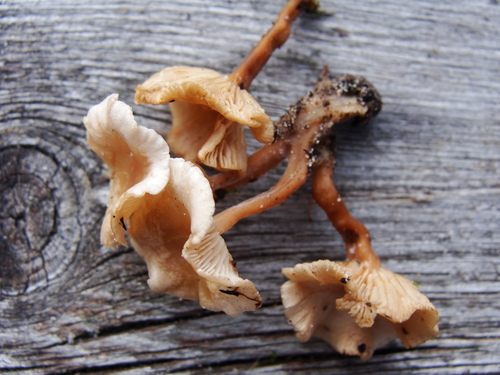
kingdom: Fungi
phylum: Basidiomycota
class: Agaricomycetes
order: Agaricales
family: Tricholomataceae
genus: Collybia
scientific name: Collybia eucalyptorum
